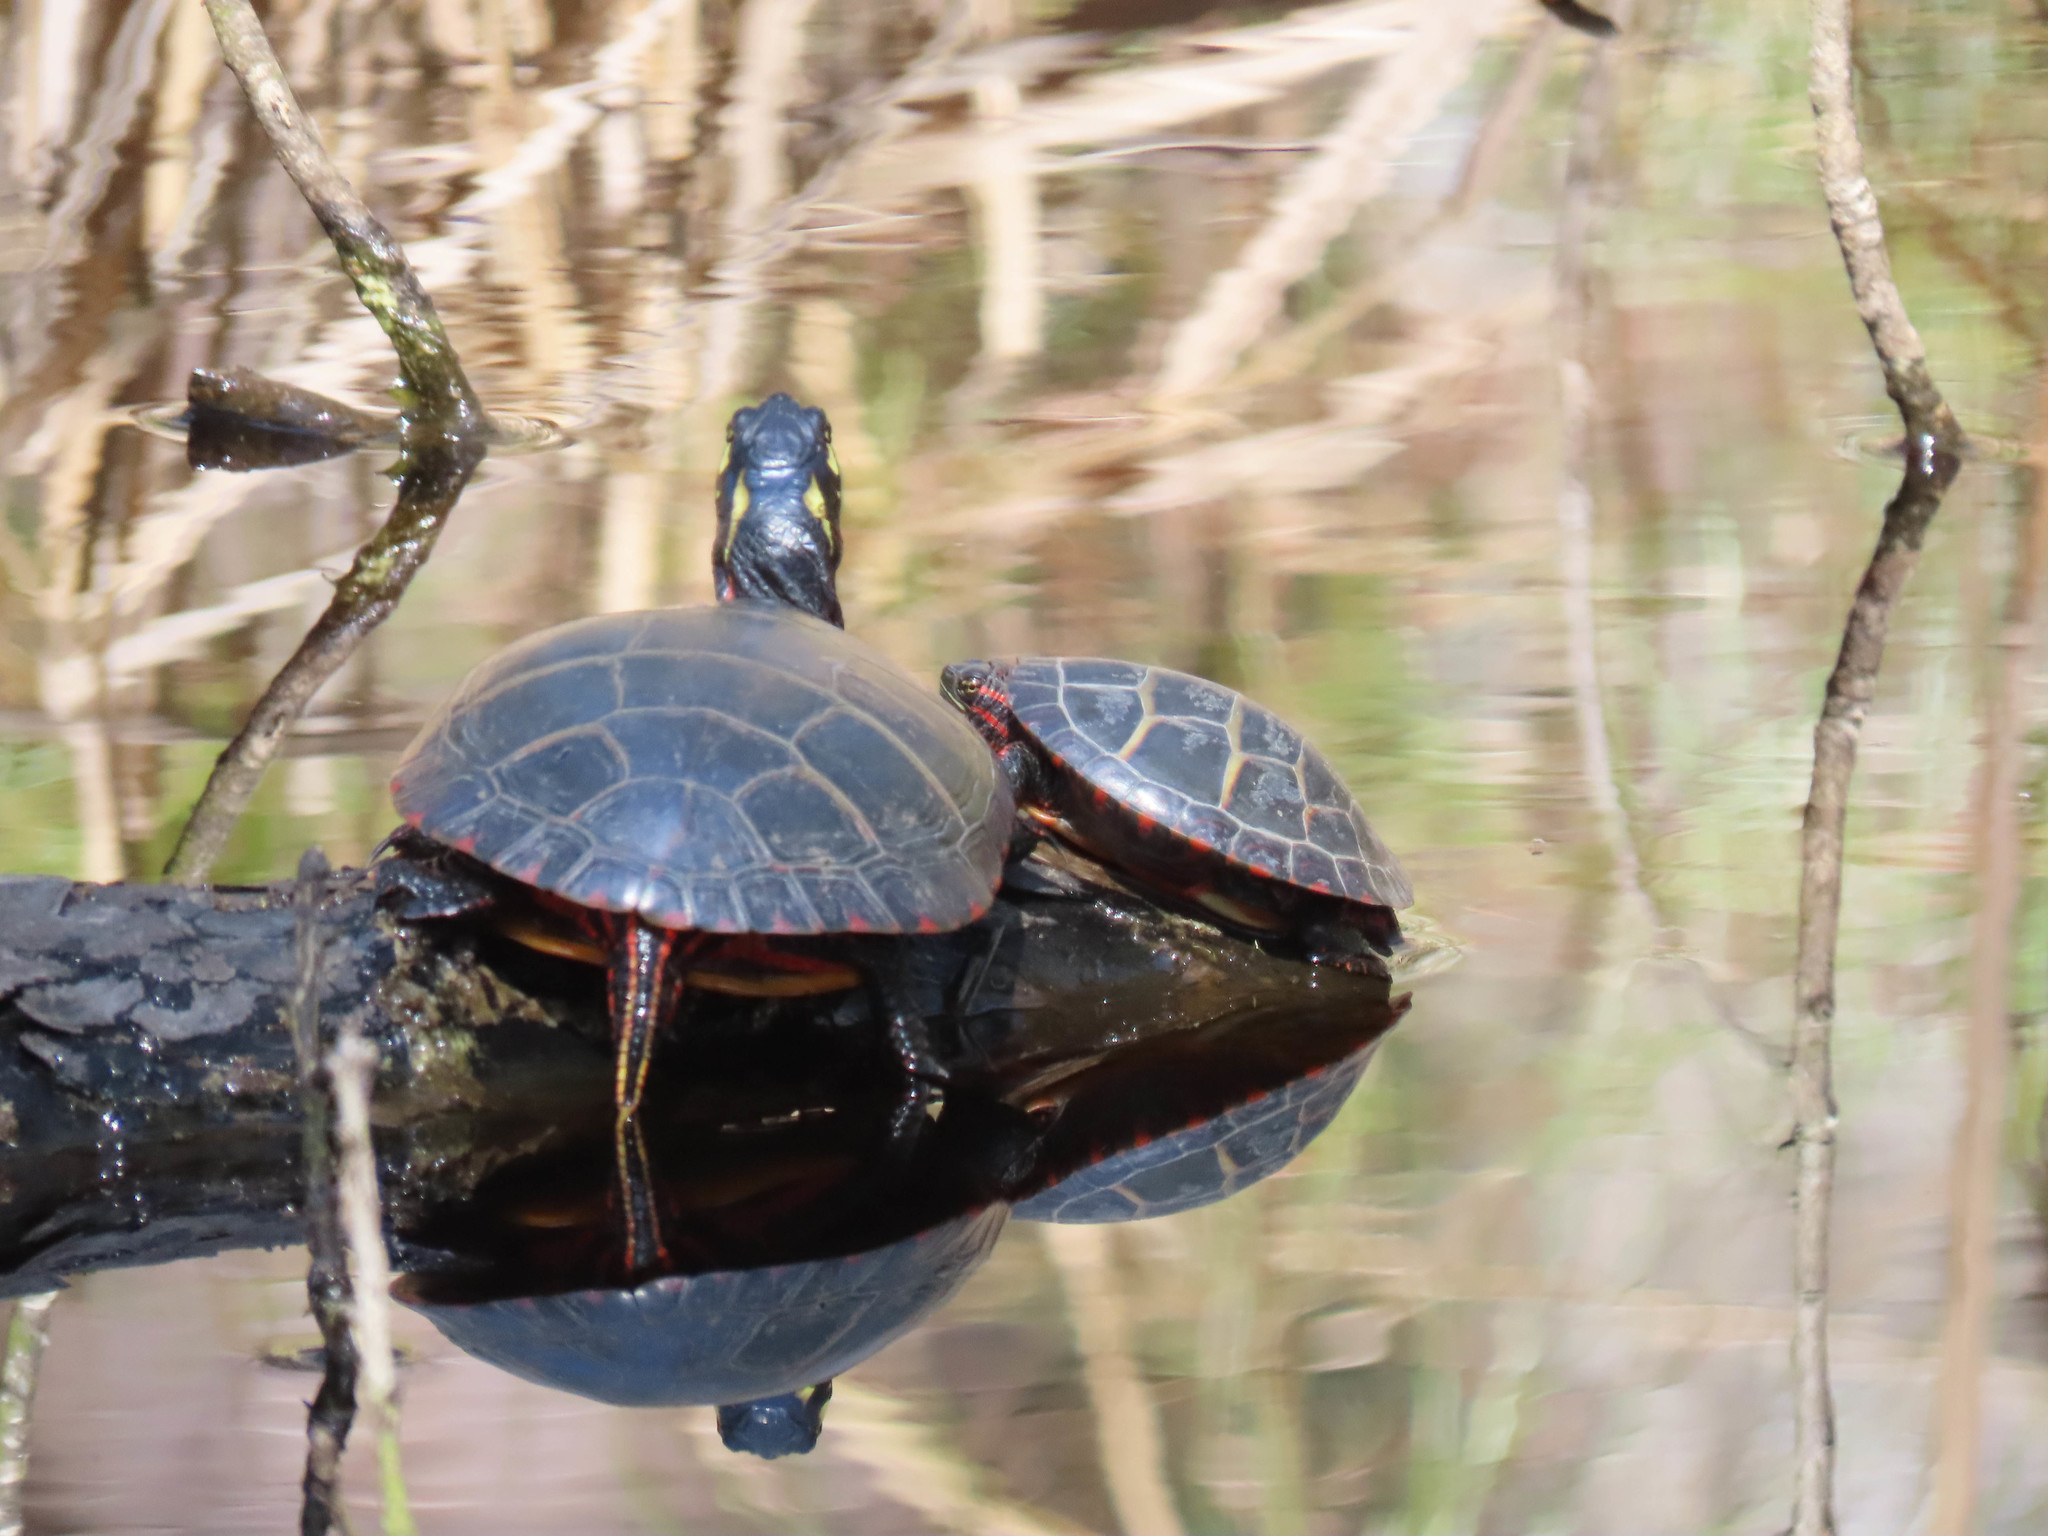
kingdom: Animalia
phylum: Chordata
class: Testudines
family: Emydidae
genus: Chrysemys
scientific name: Chrysemys picta
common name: Painted turtle
